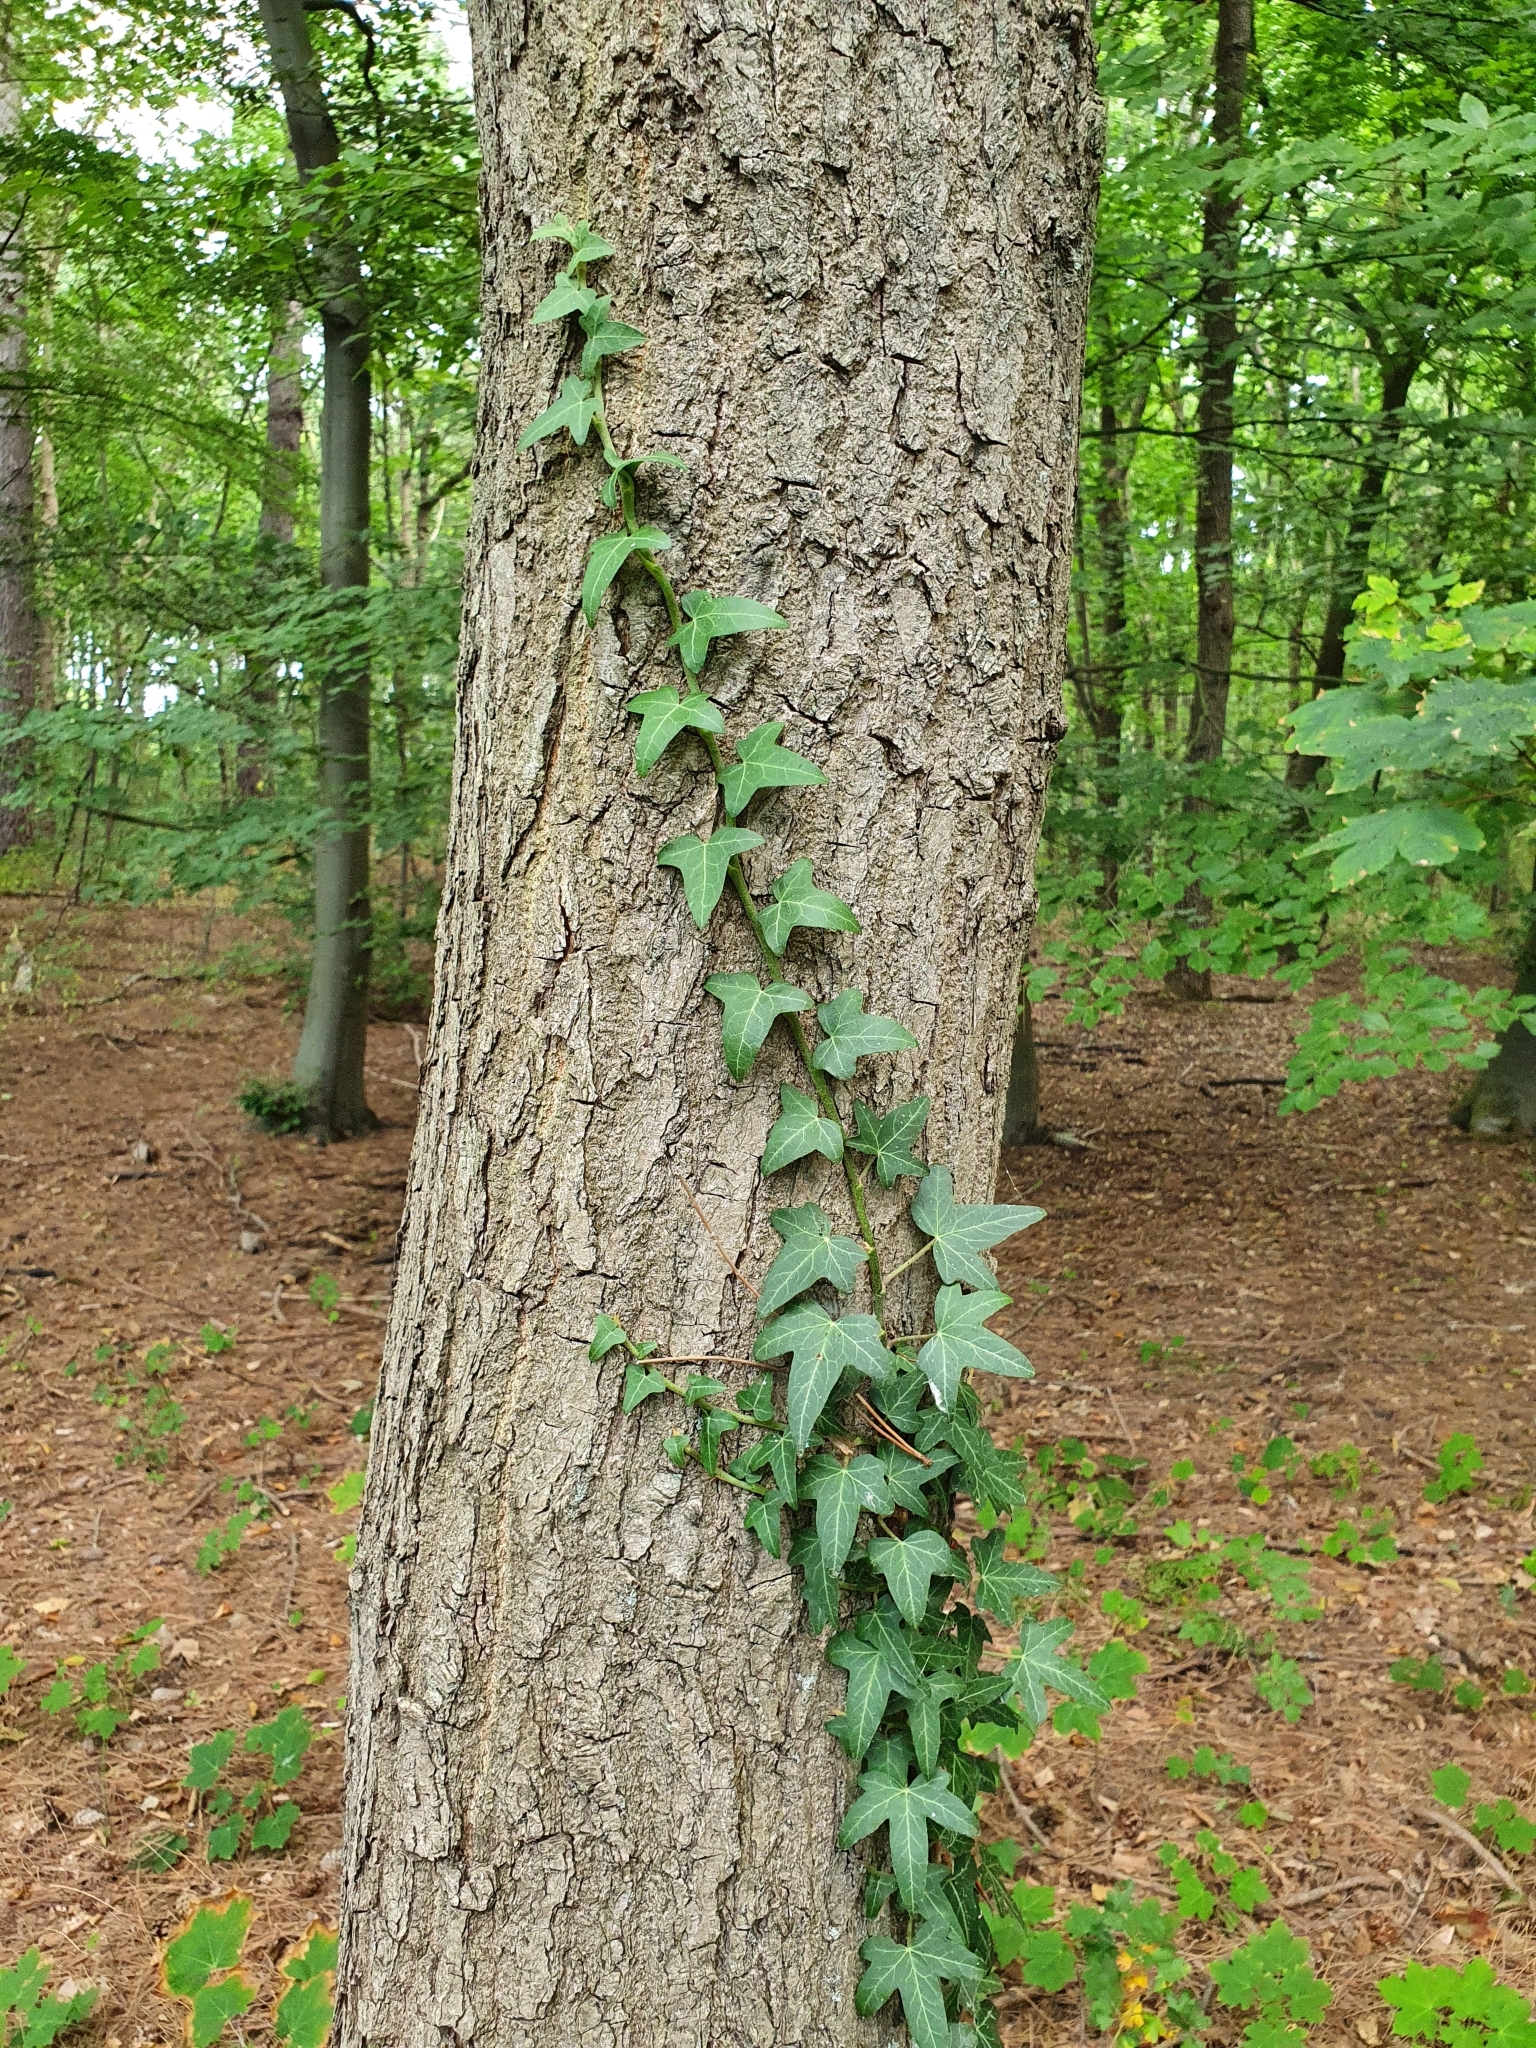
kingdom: Plantae
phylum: Tracheophyta
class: Magnoliopsida
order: Apiales
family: Araliaceae
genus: Hedera
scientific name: Hedera helix
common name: Ivy
